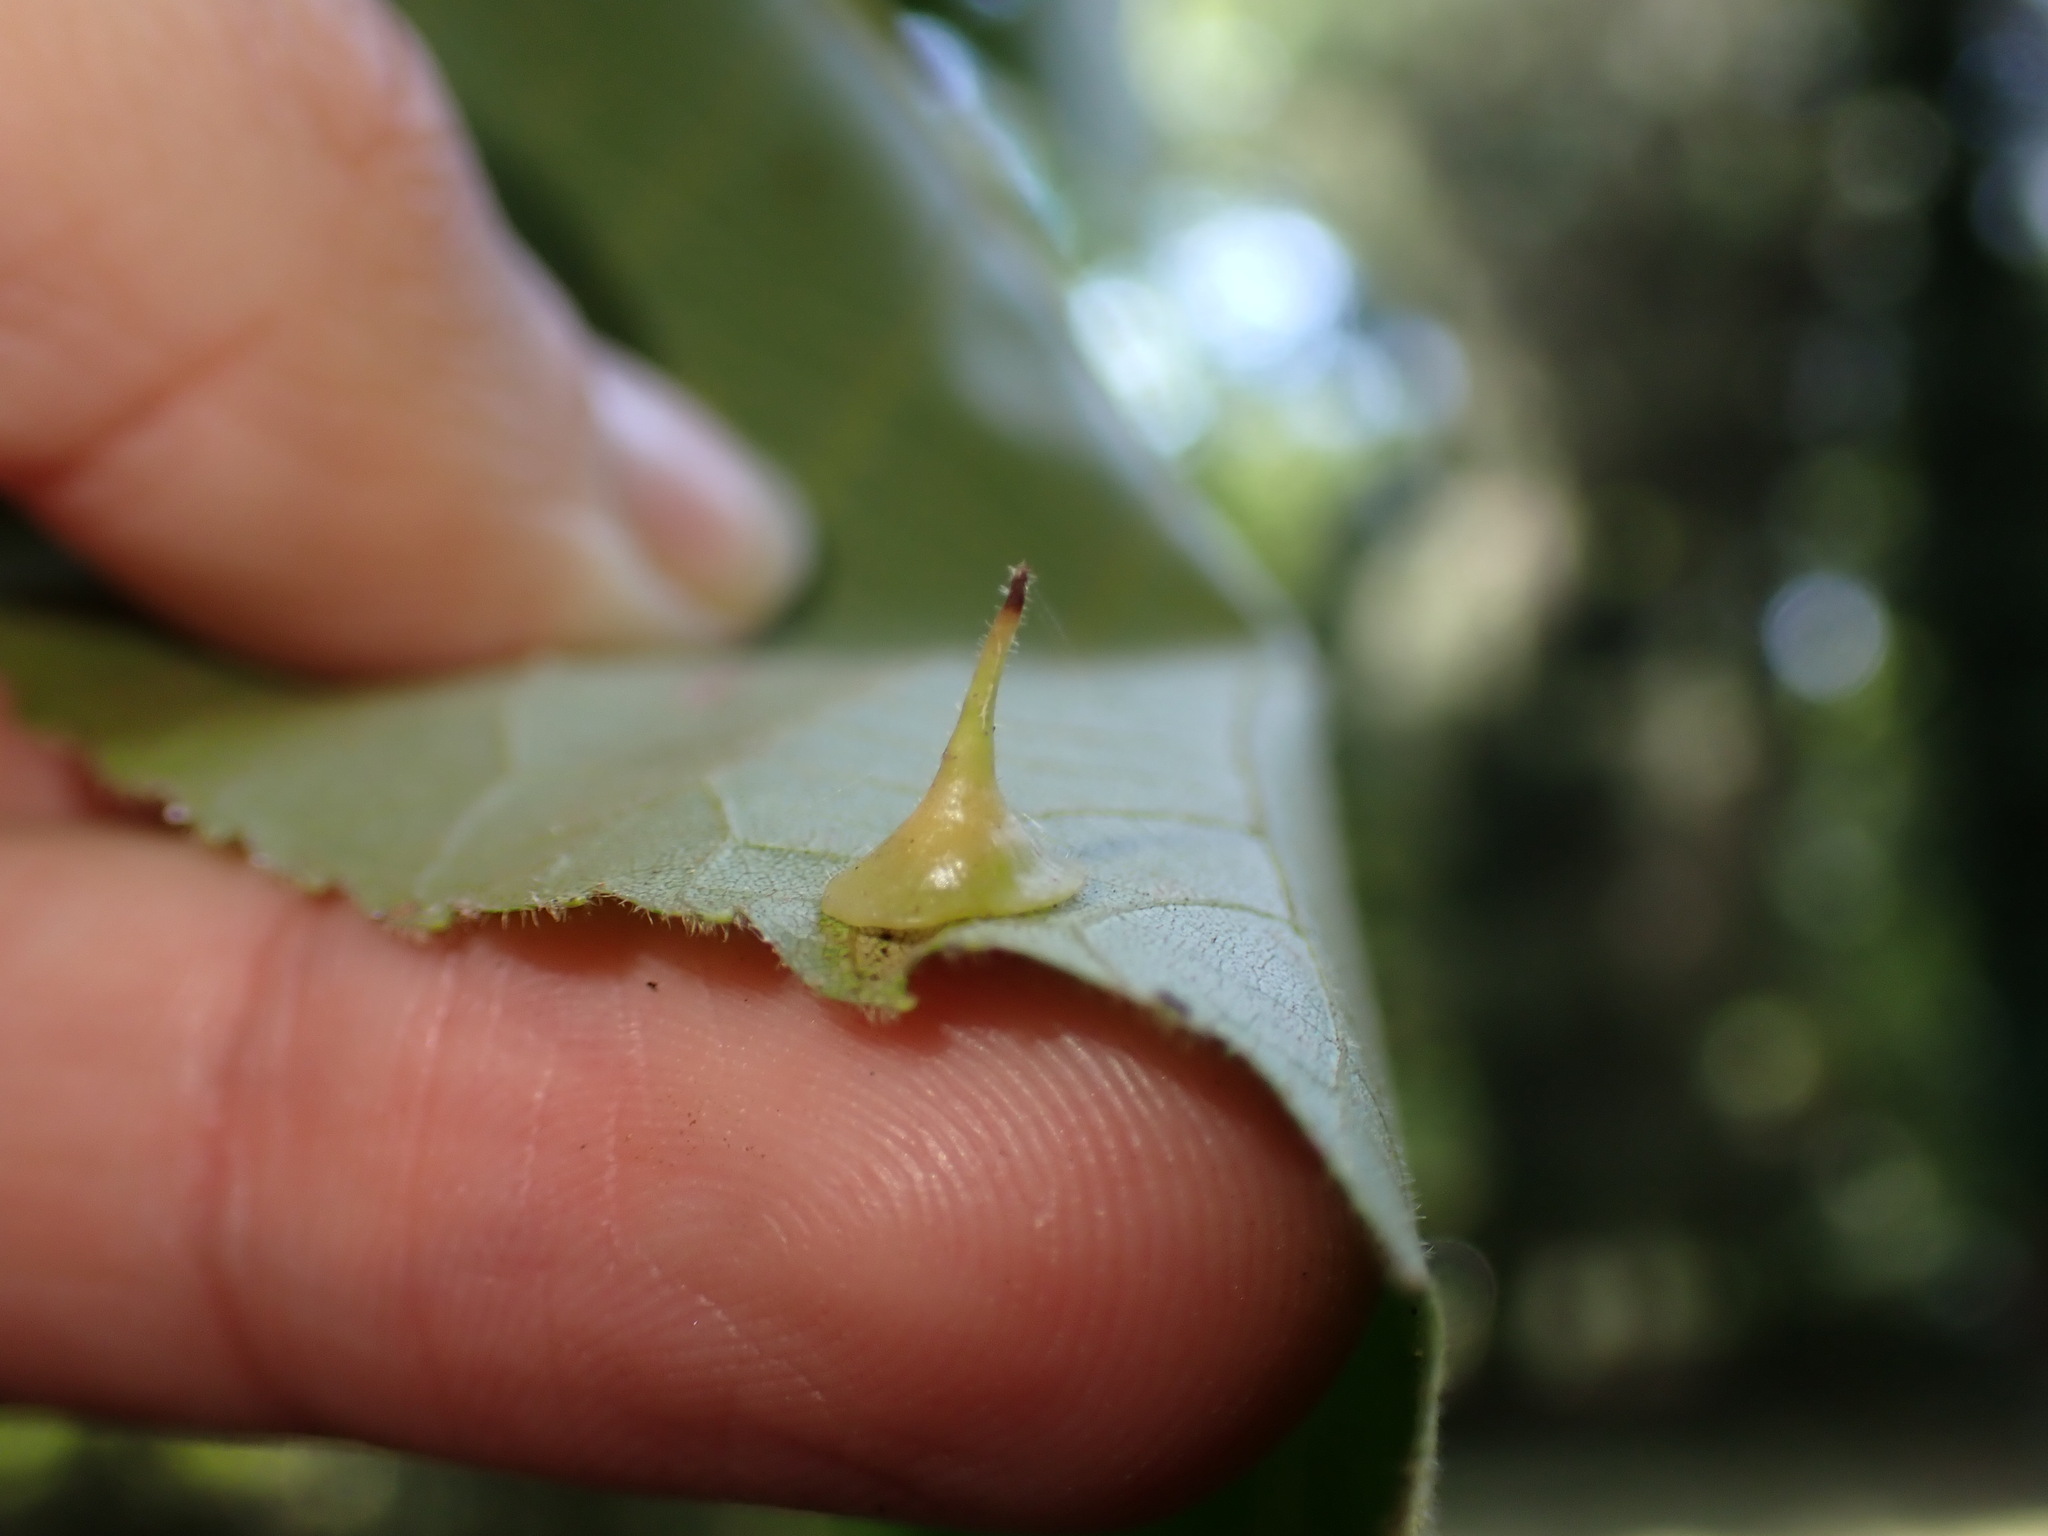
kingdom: Animalia
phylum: Arthropoda
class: Insecta
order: Diptera
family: Cecidomyiidae
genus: Caryomyia
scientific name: Caryomyia marginata
